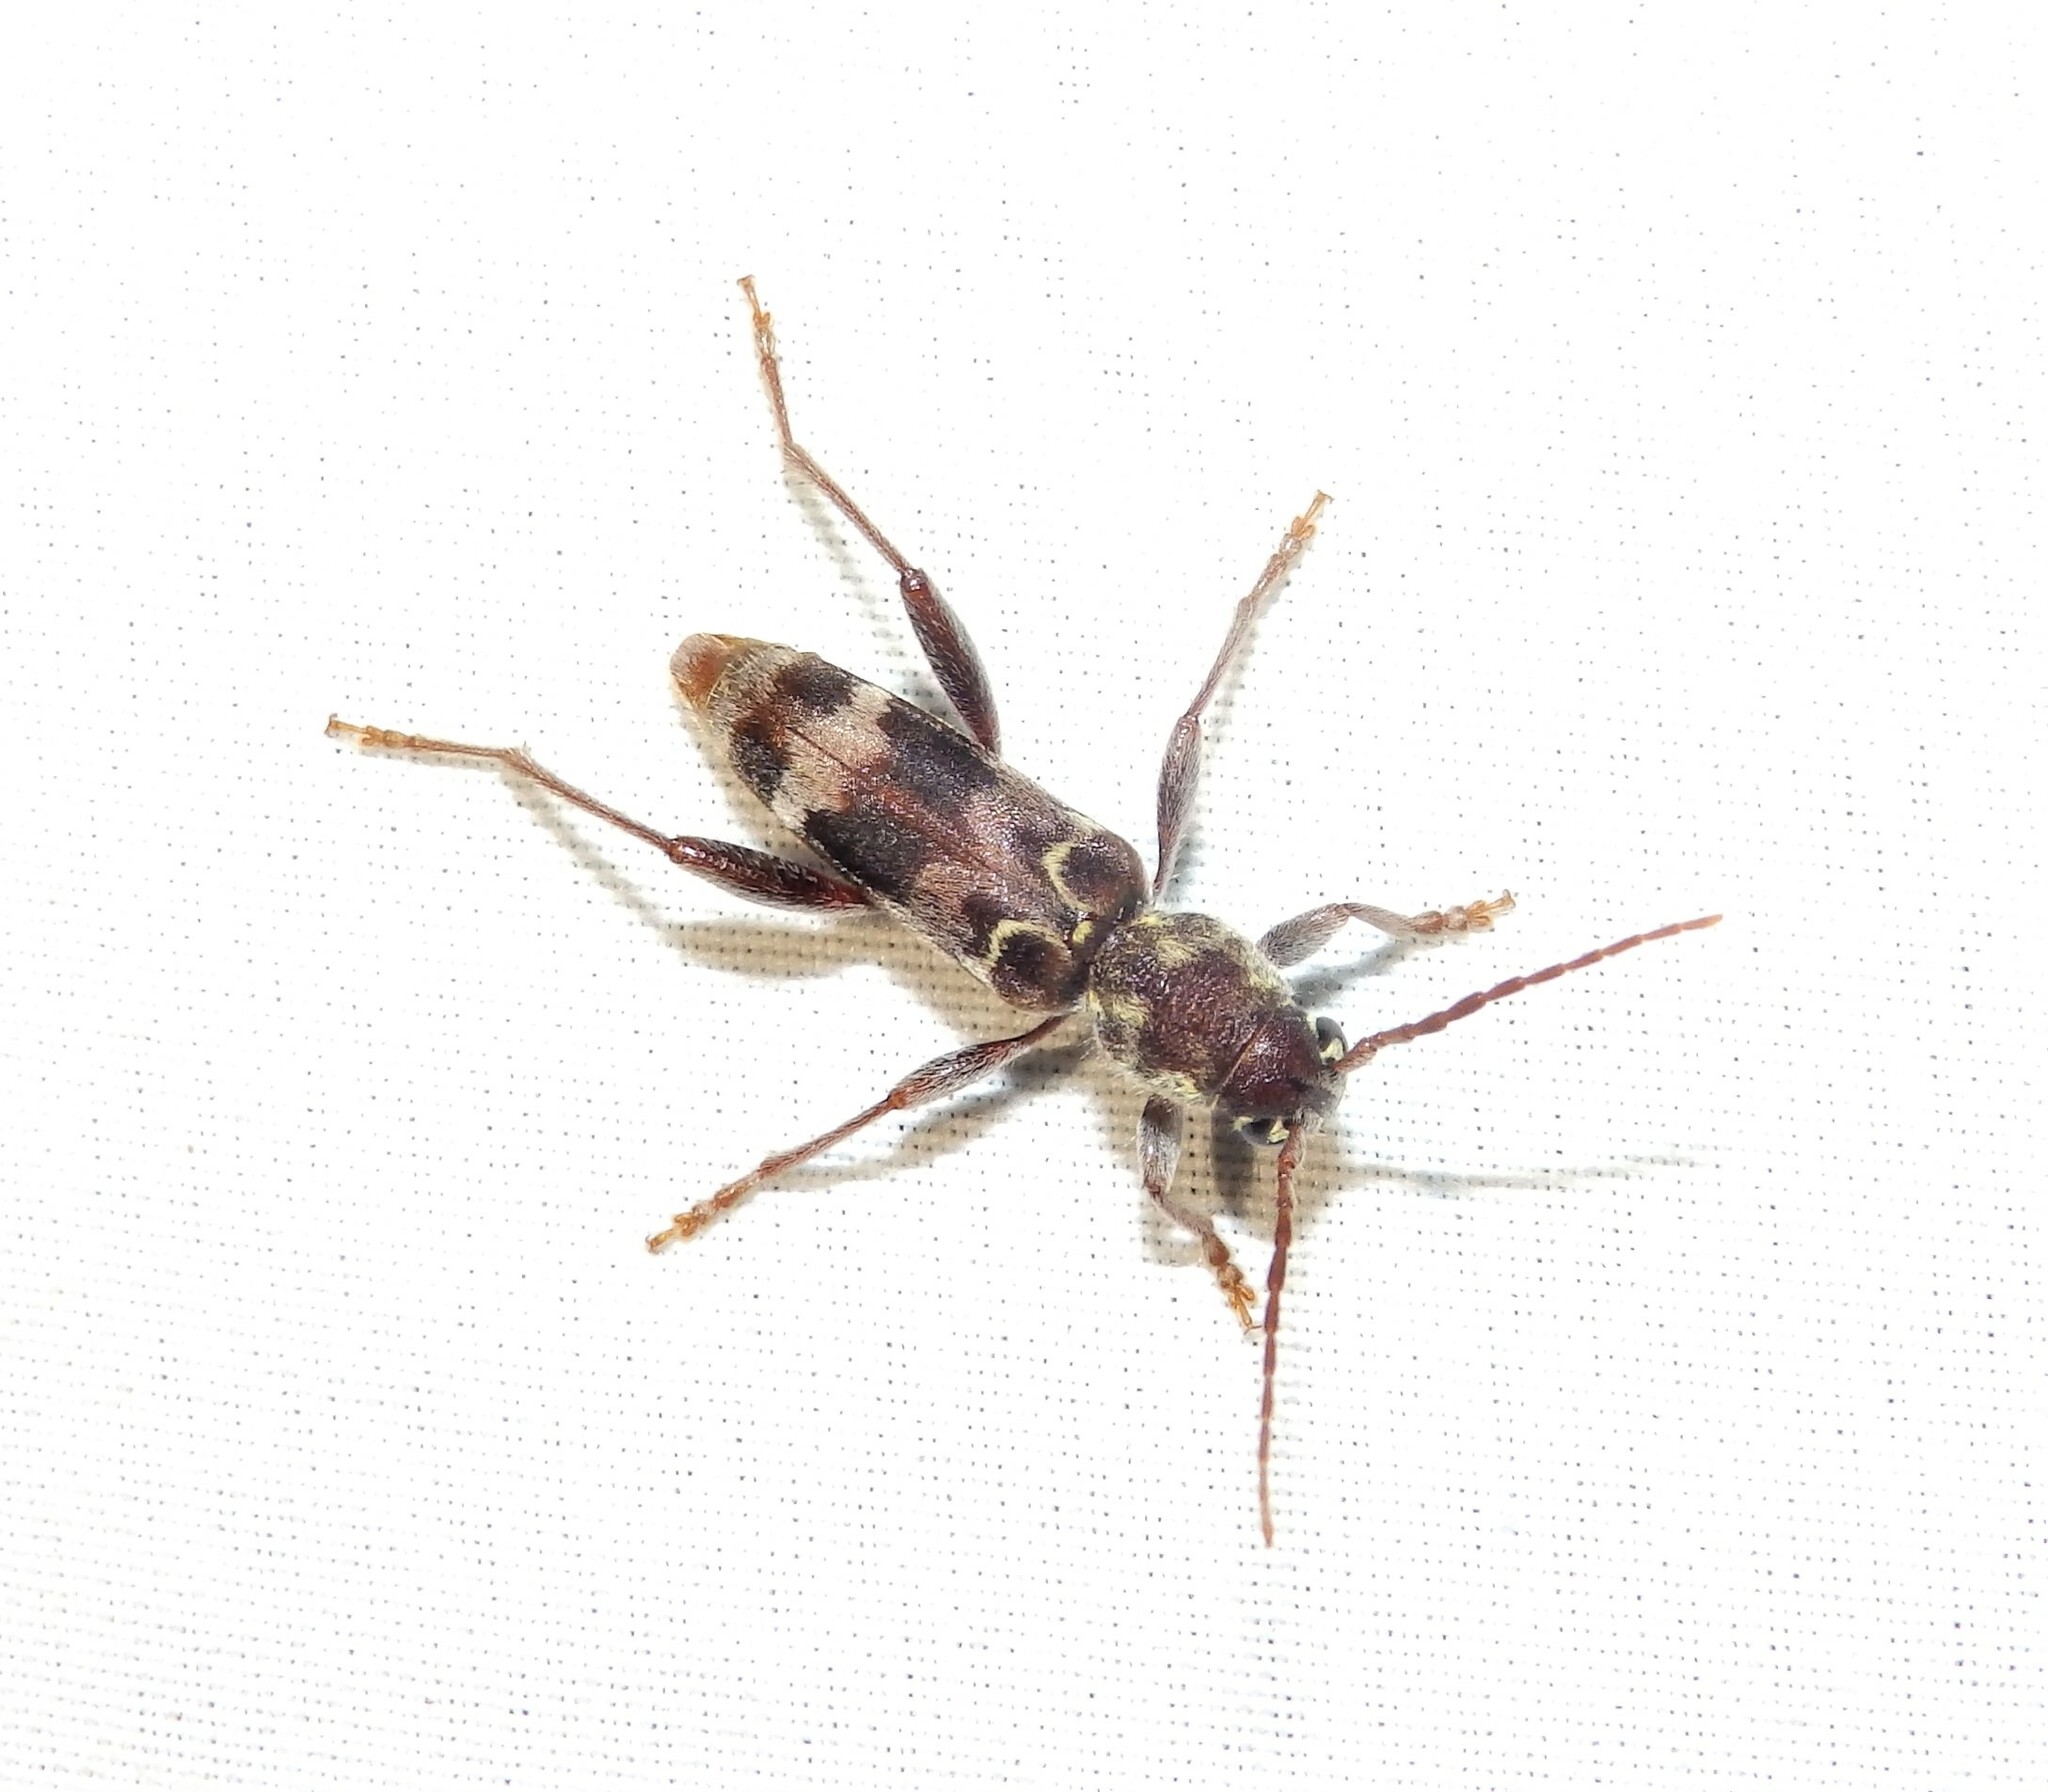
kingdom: Animalia
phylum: Arthropoda
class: Insecta
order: Coleoptera
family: Cerambycidae
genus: Xylotrechus
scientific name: Xylotrechus colonus
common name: Long-horned beetle
